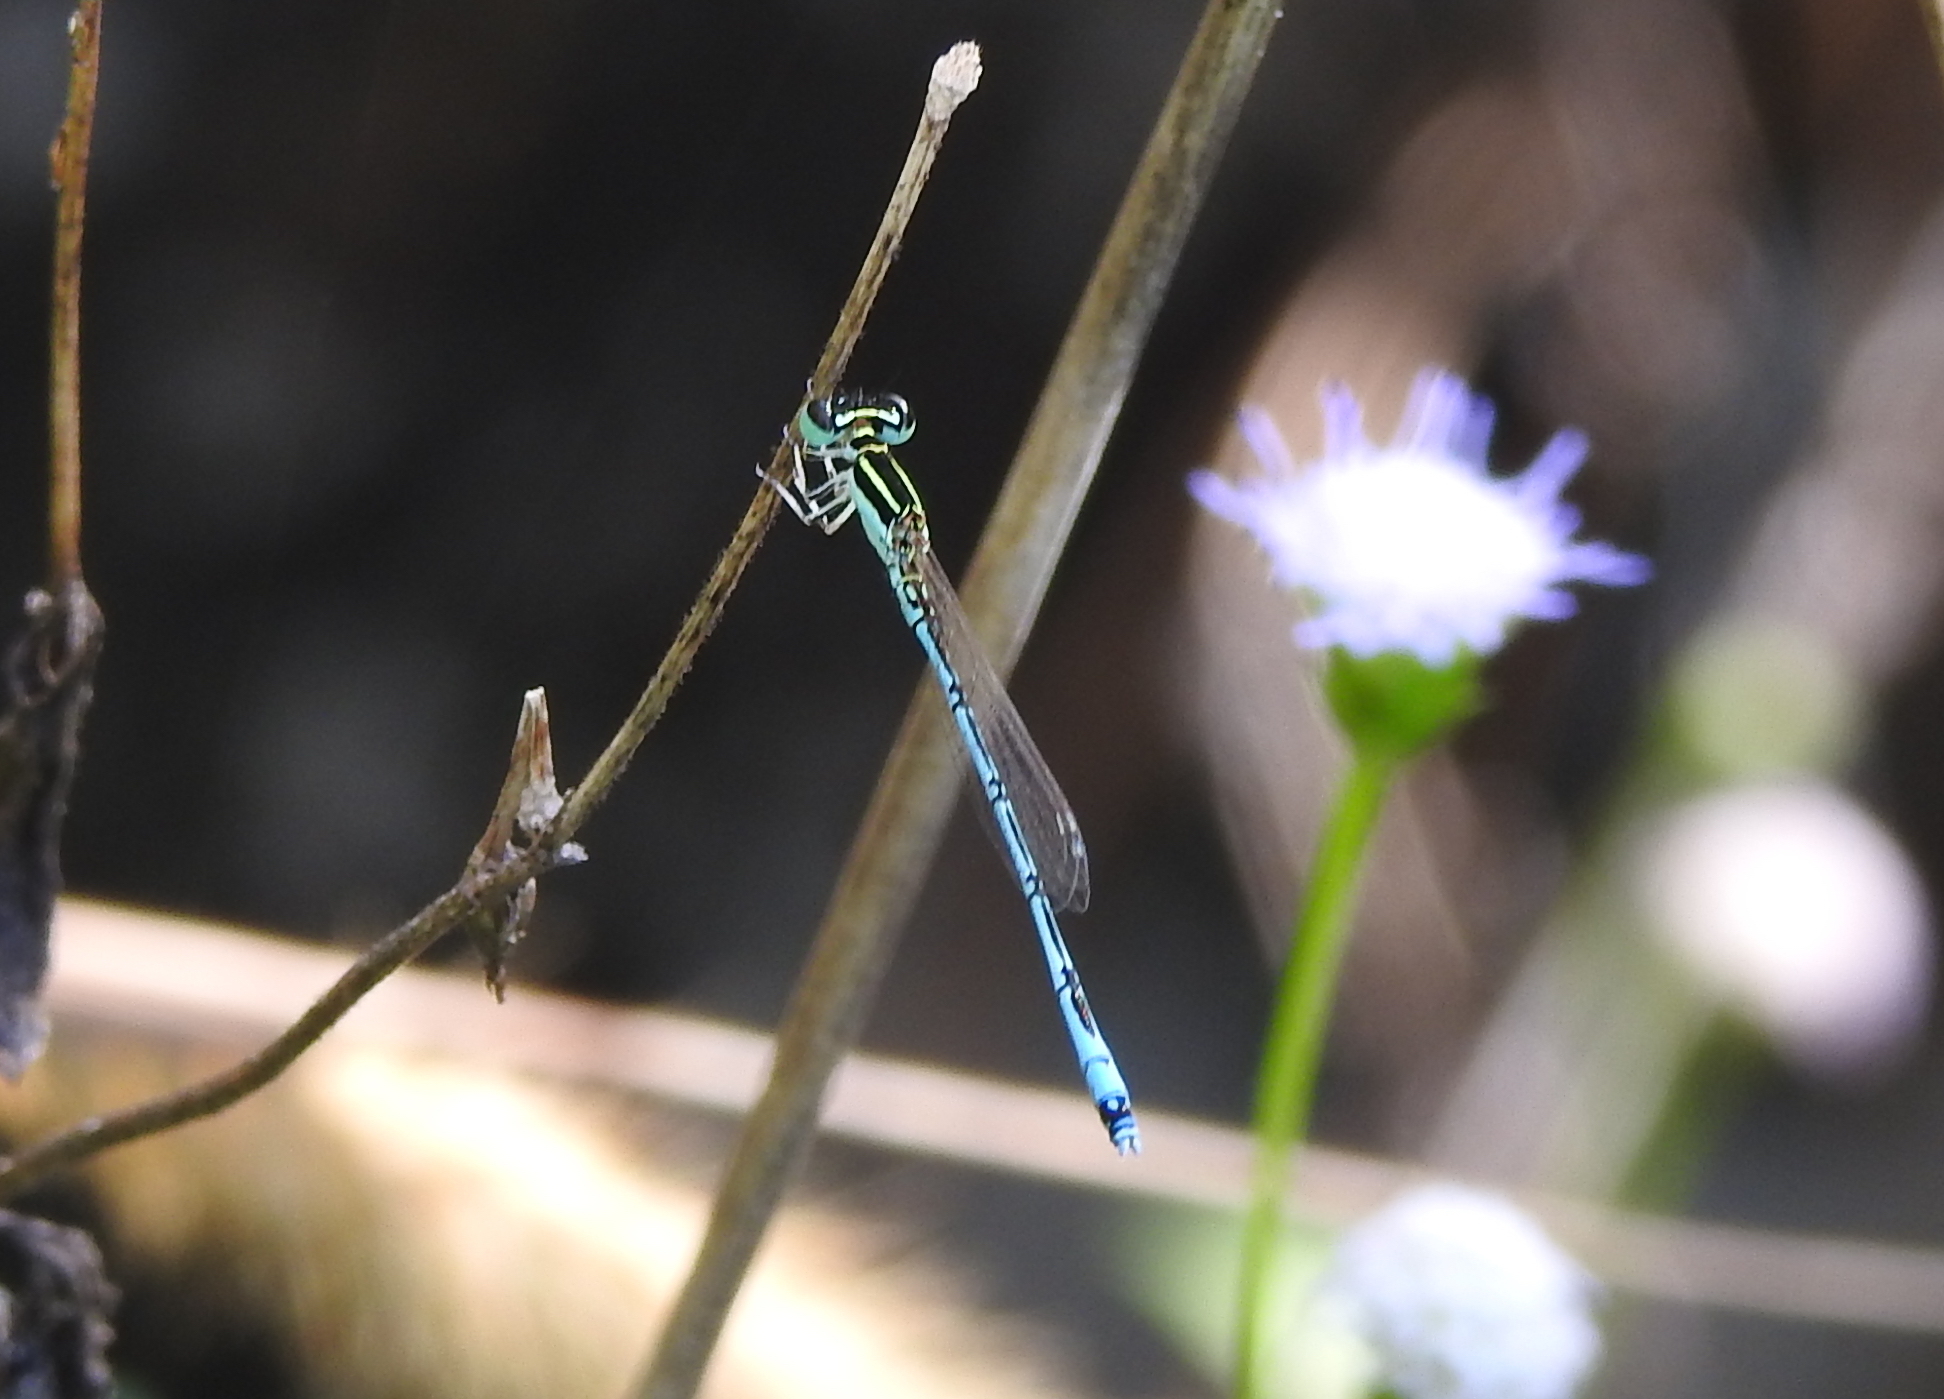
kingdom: Animalia
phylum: Arthropoda
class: Insecta
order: Odonata
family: Coenagrionidae
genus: Agriocnemis
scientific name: Agriocnemis nana
